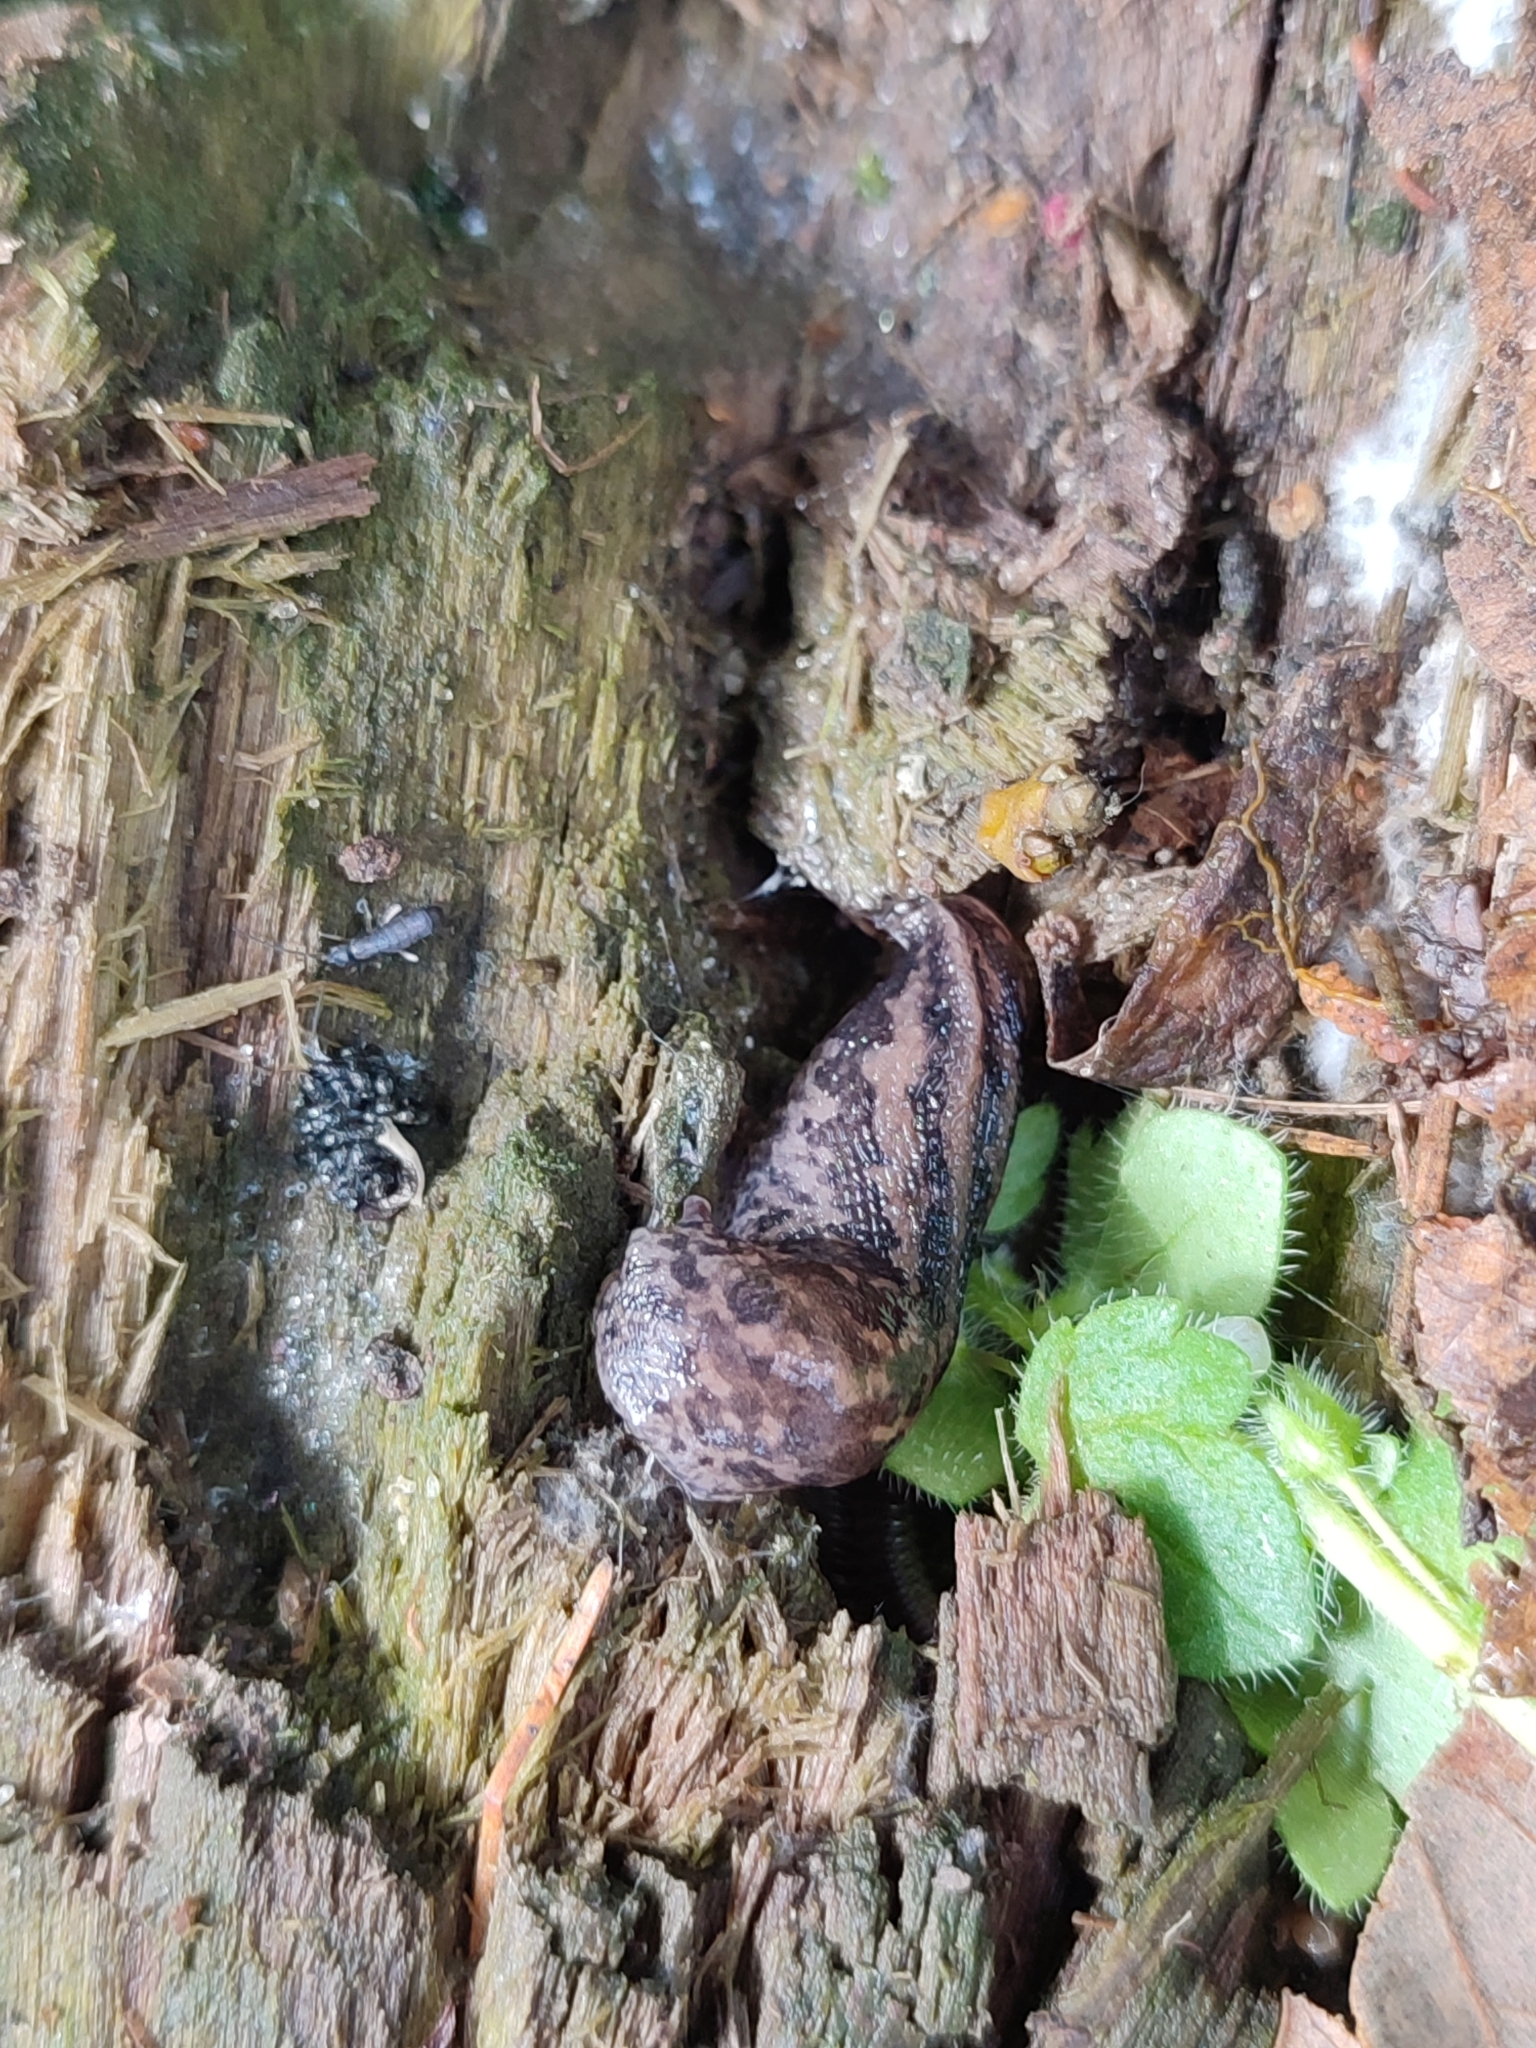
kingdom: Animalia
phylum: Mollusca
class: Gastropoda
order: Stylommatophora
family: Limacidae
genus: Limax
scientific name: Limax maximus
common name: Great grey slug
